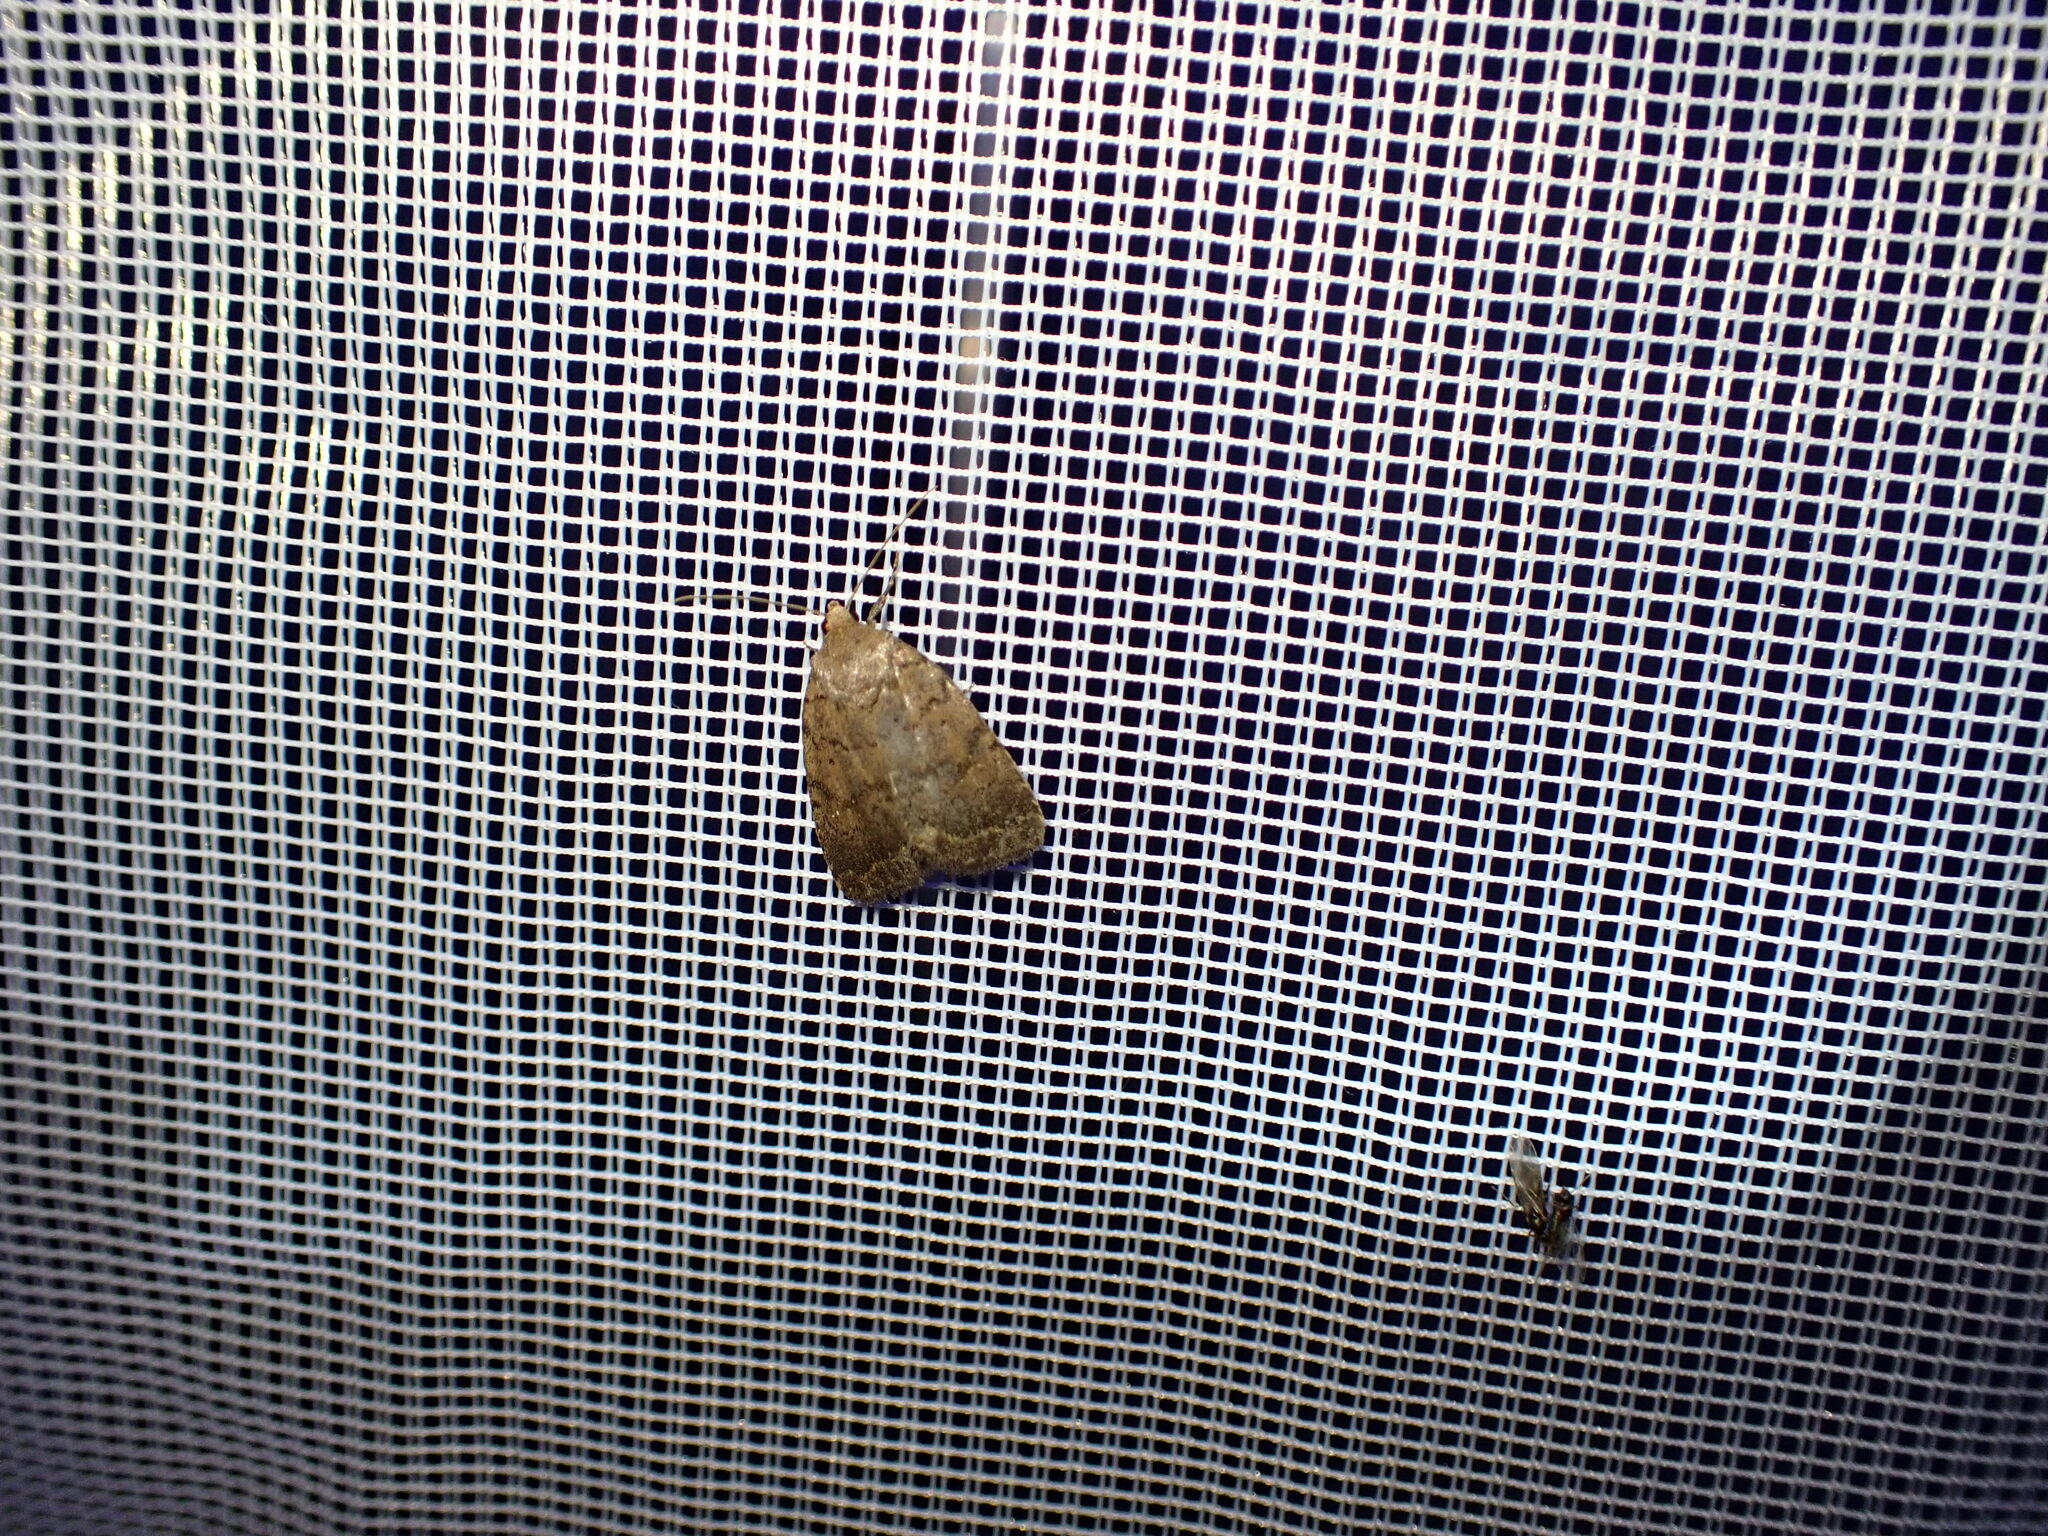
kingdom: Animalia
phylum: Arthropoda
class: Insecta
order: Lepidoptera
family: Noctuidae
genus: Athetis
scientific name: Athetis tarda
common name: Slowpoke moth
